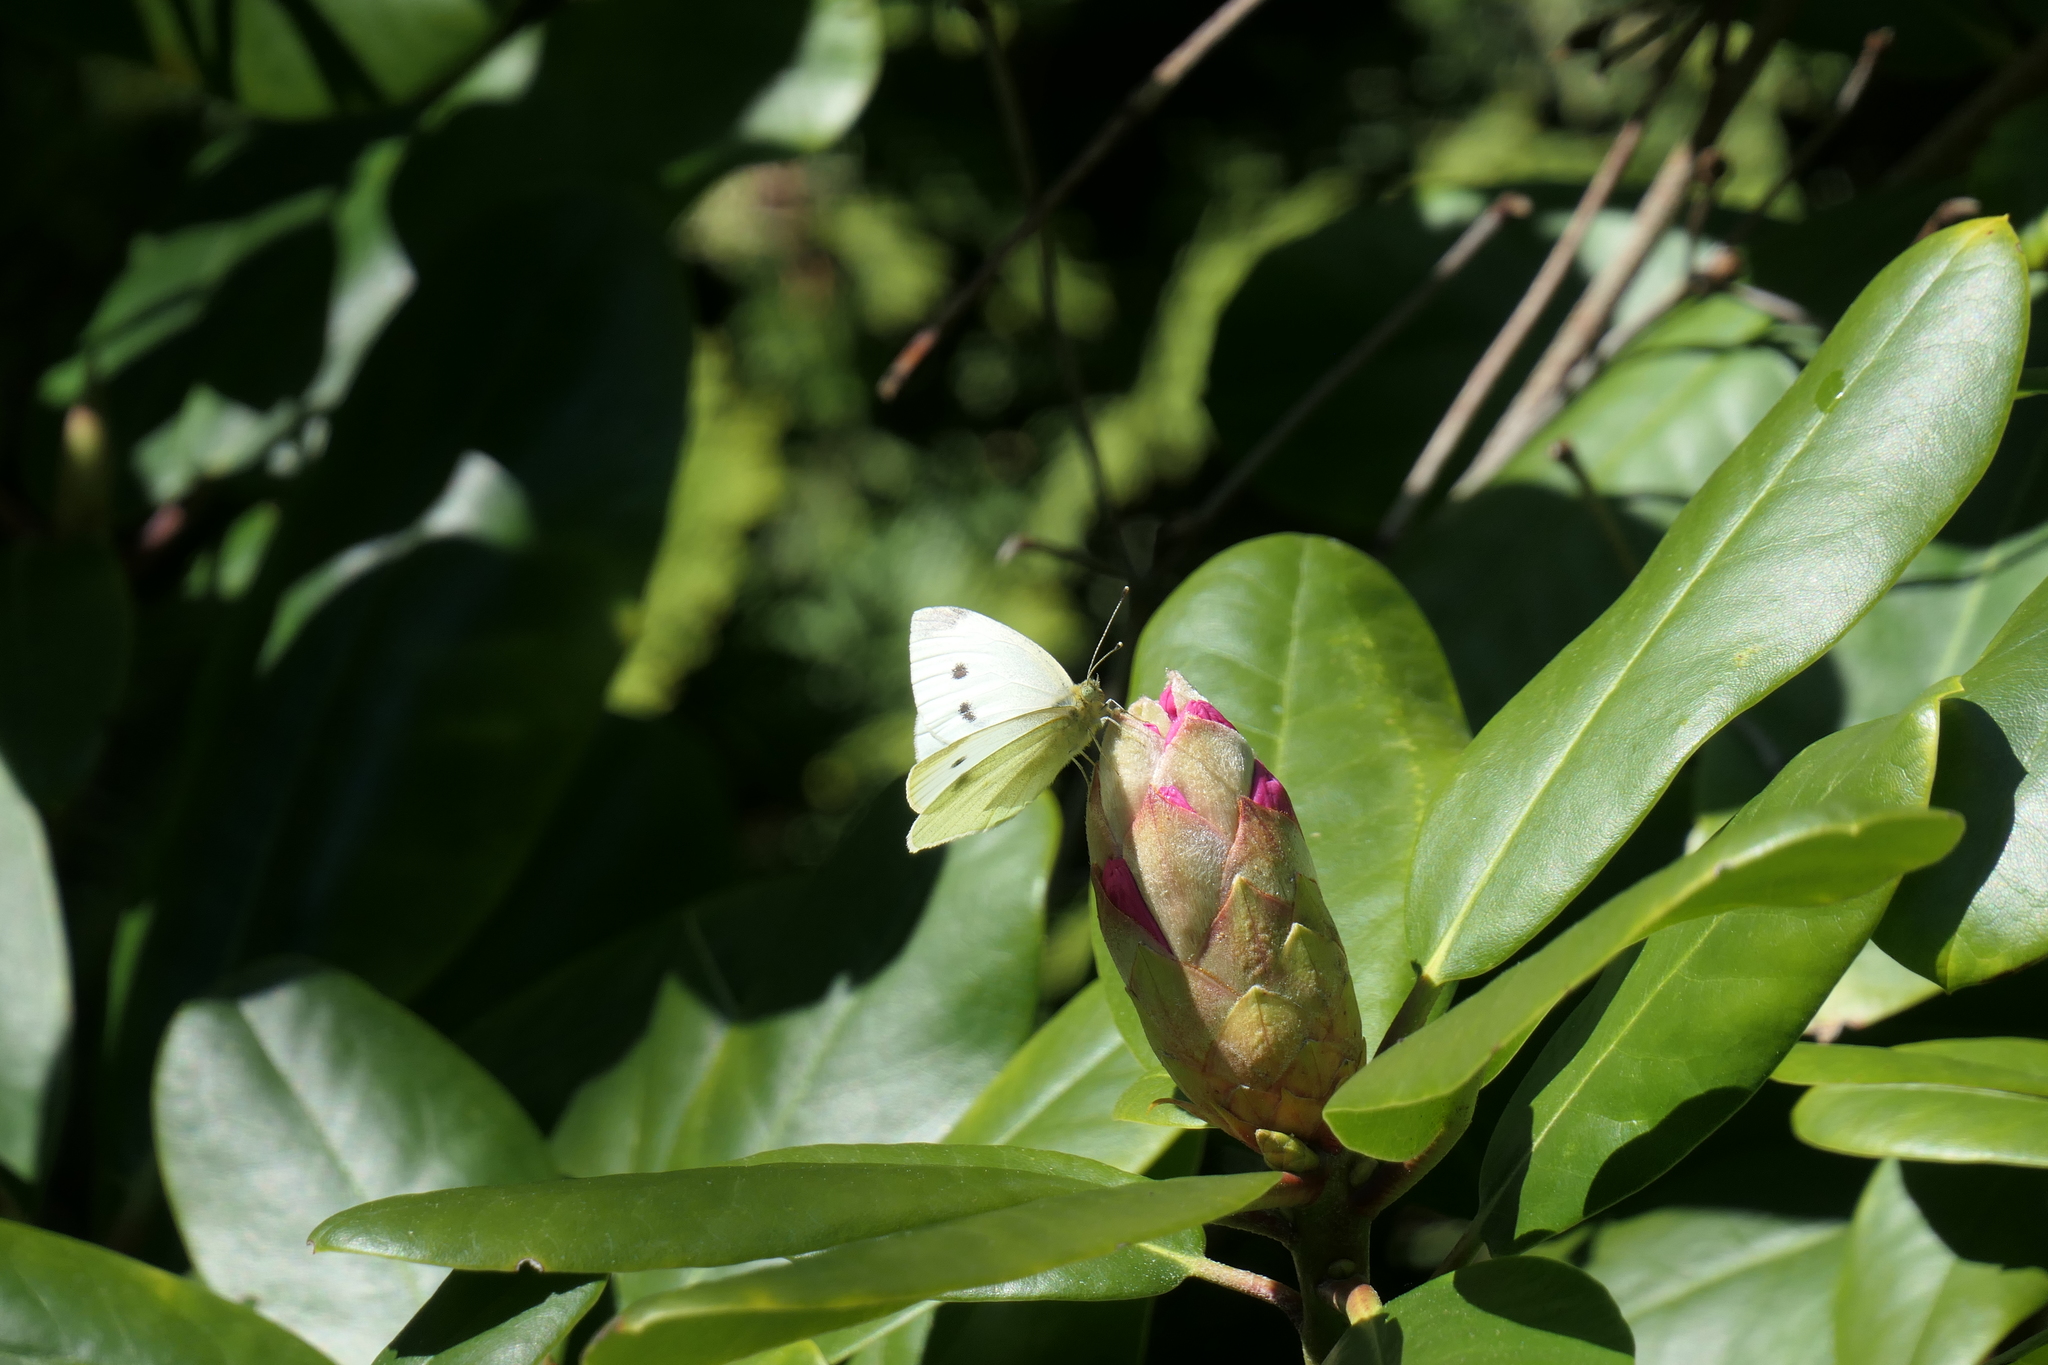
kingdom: Animalia
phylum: Arthropoda
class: Insecta
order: Lepidoptera
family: Pieridae
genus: Pieris
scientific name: Pieris rapae
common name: Small white
